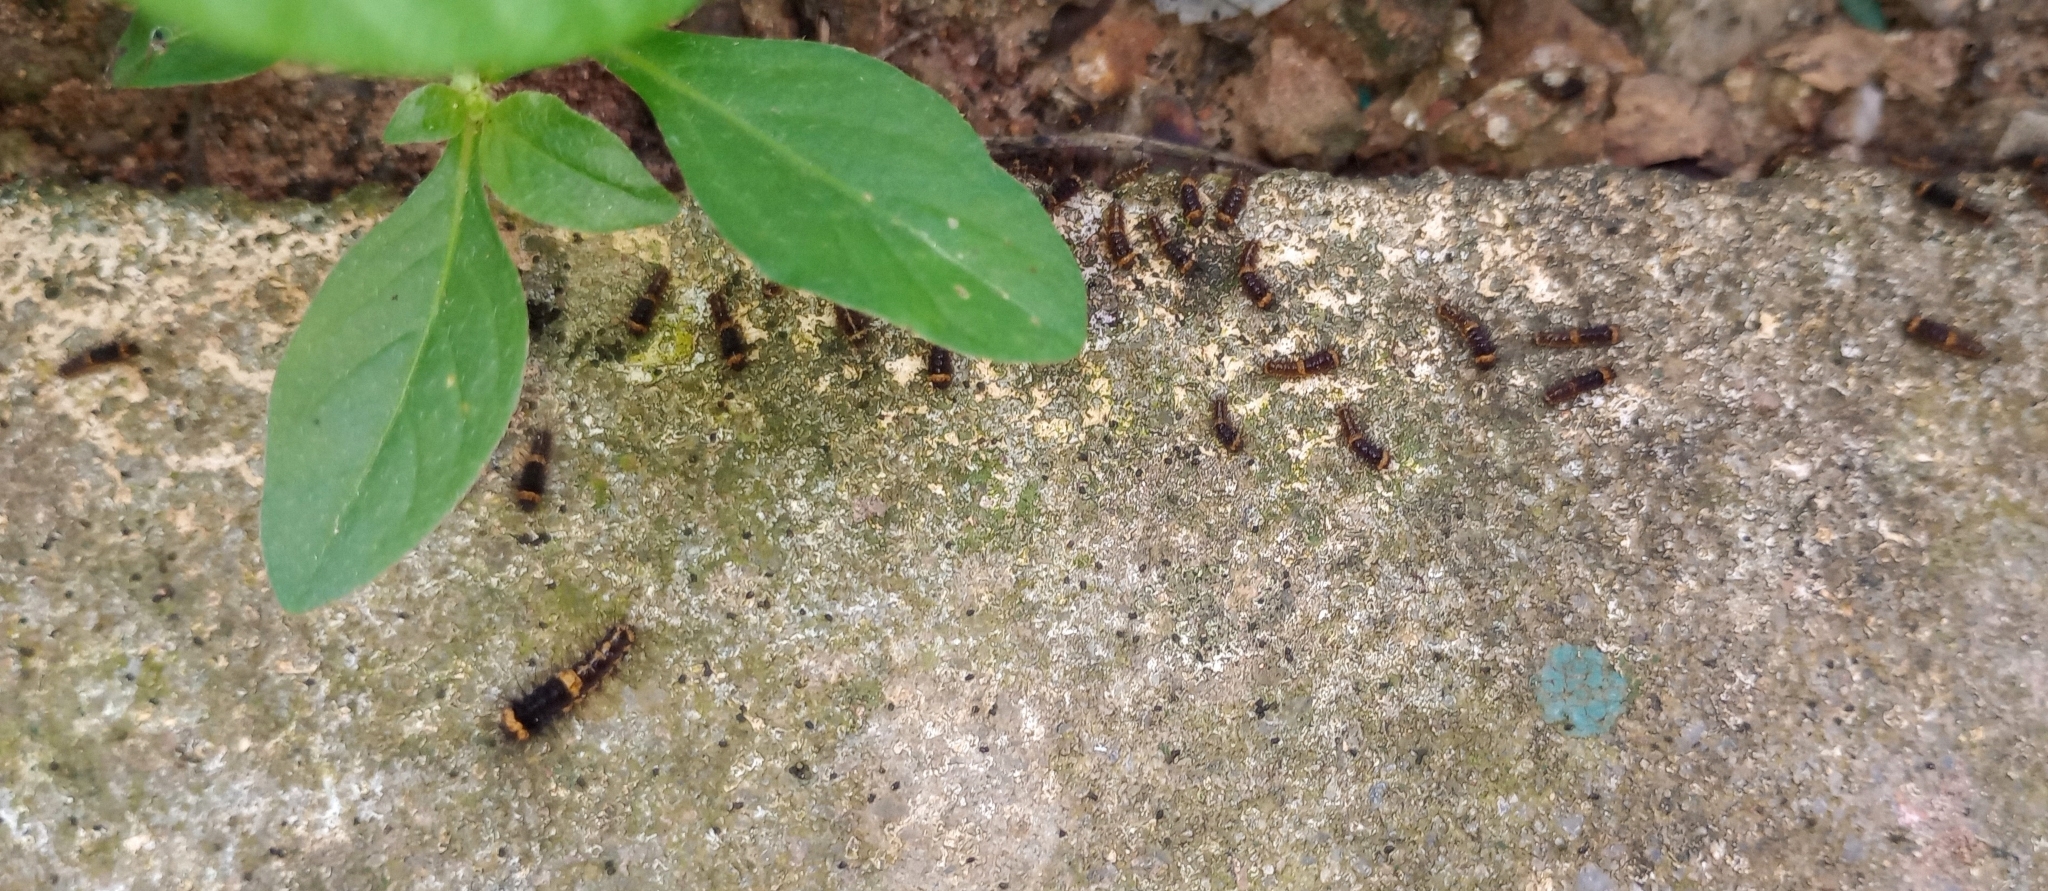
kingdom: Animalia
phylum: Arthropoda
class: Insecta
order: Lepidoptera
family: Erebidae
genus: Nepita
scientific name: Nepita conferta
